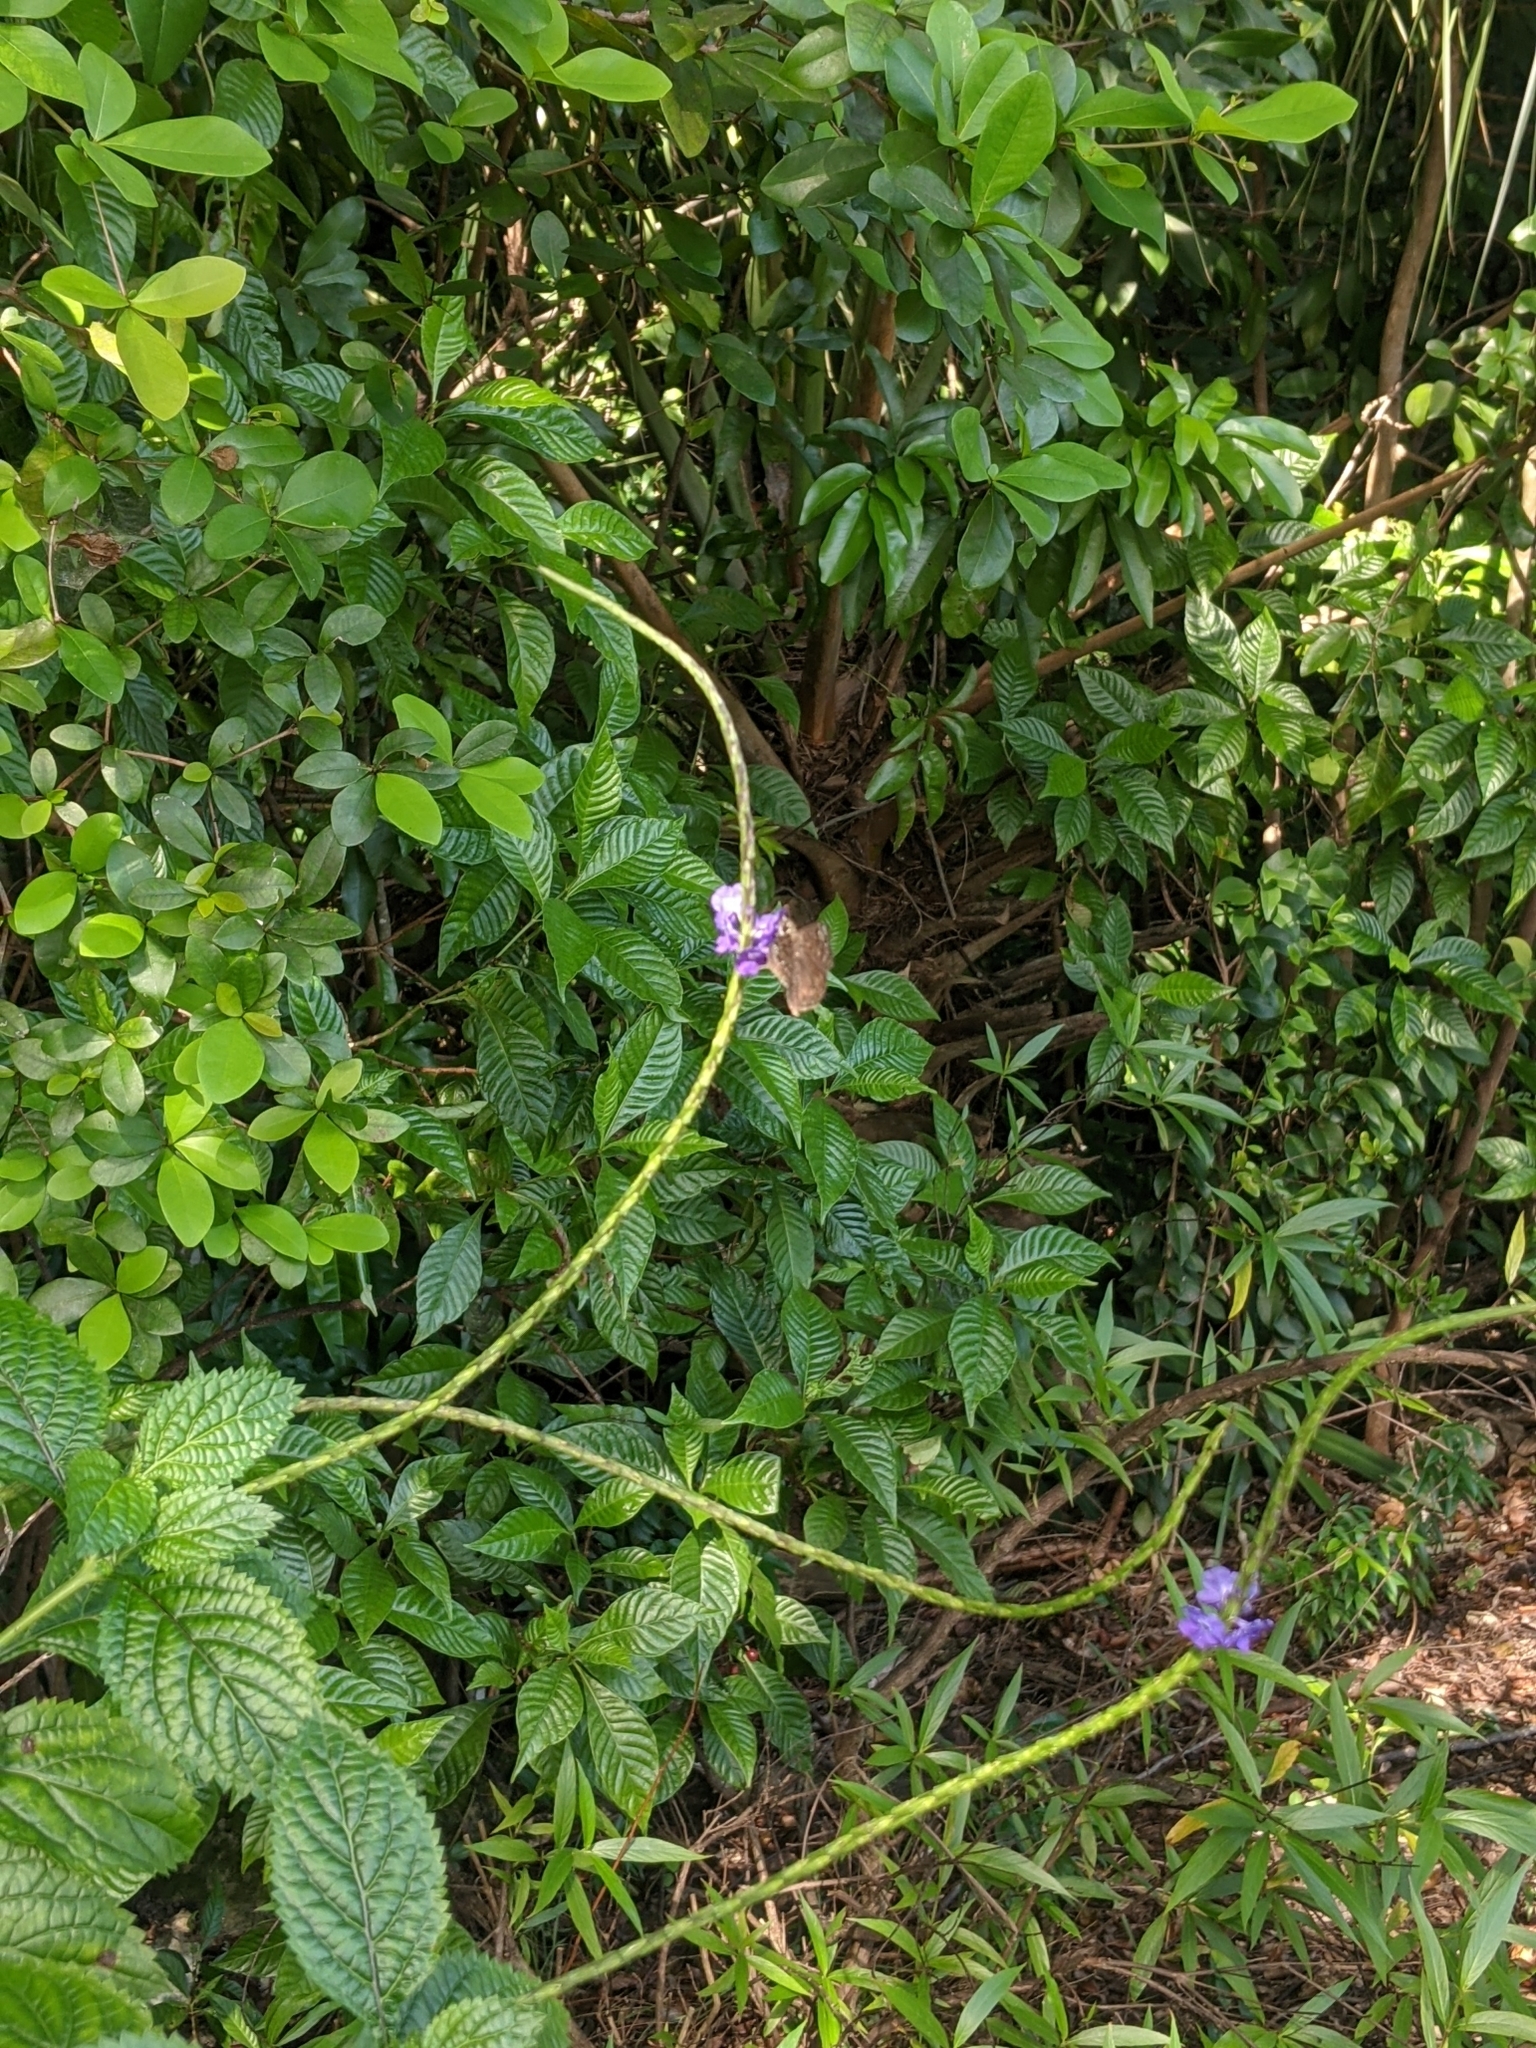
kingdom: Animalia
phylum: Arthropoda
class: Insecta
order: Lepidoptera
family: Hesperiidae
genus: Erynnis
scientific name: Erynnis horatius
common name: Horace's duskywing
